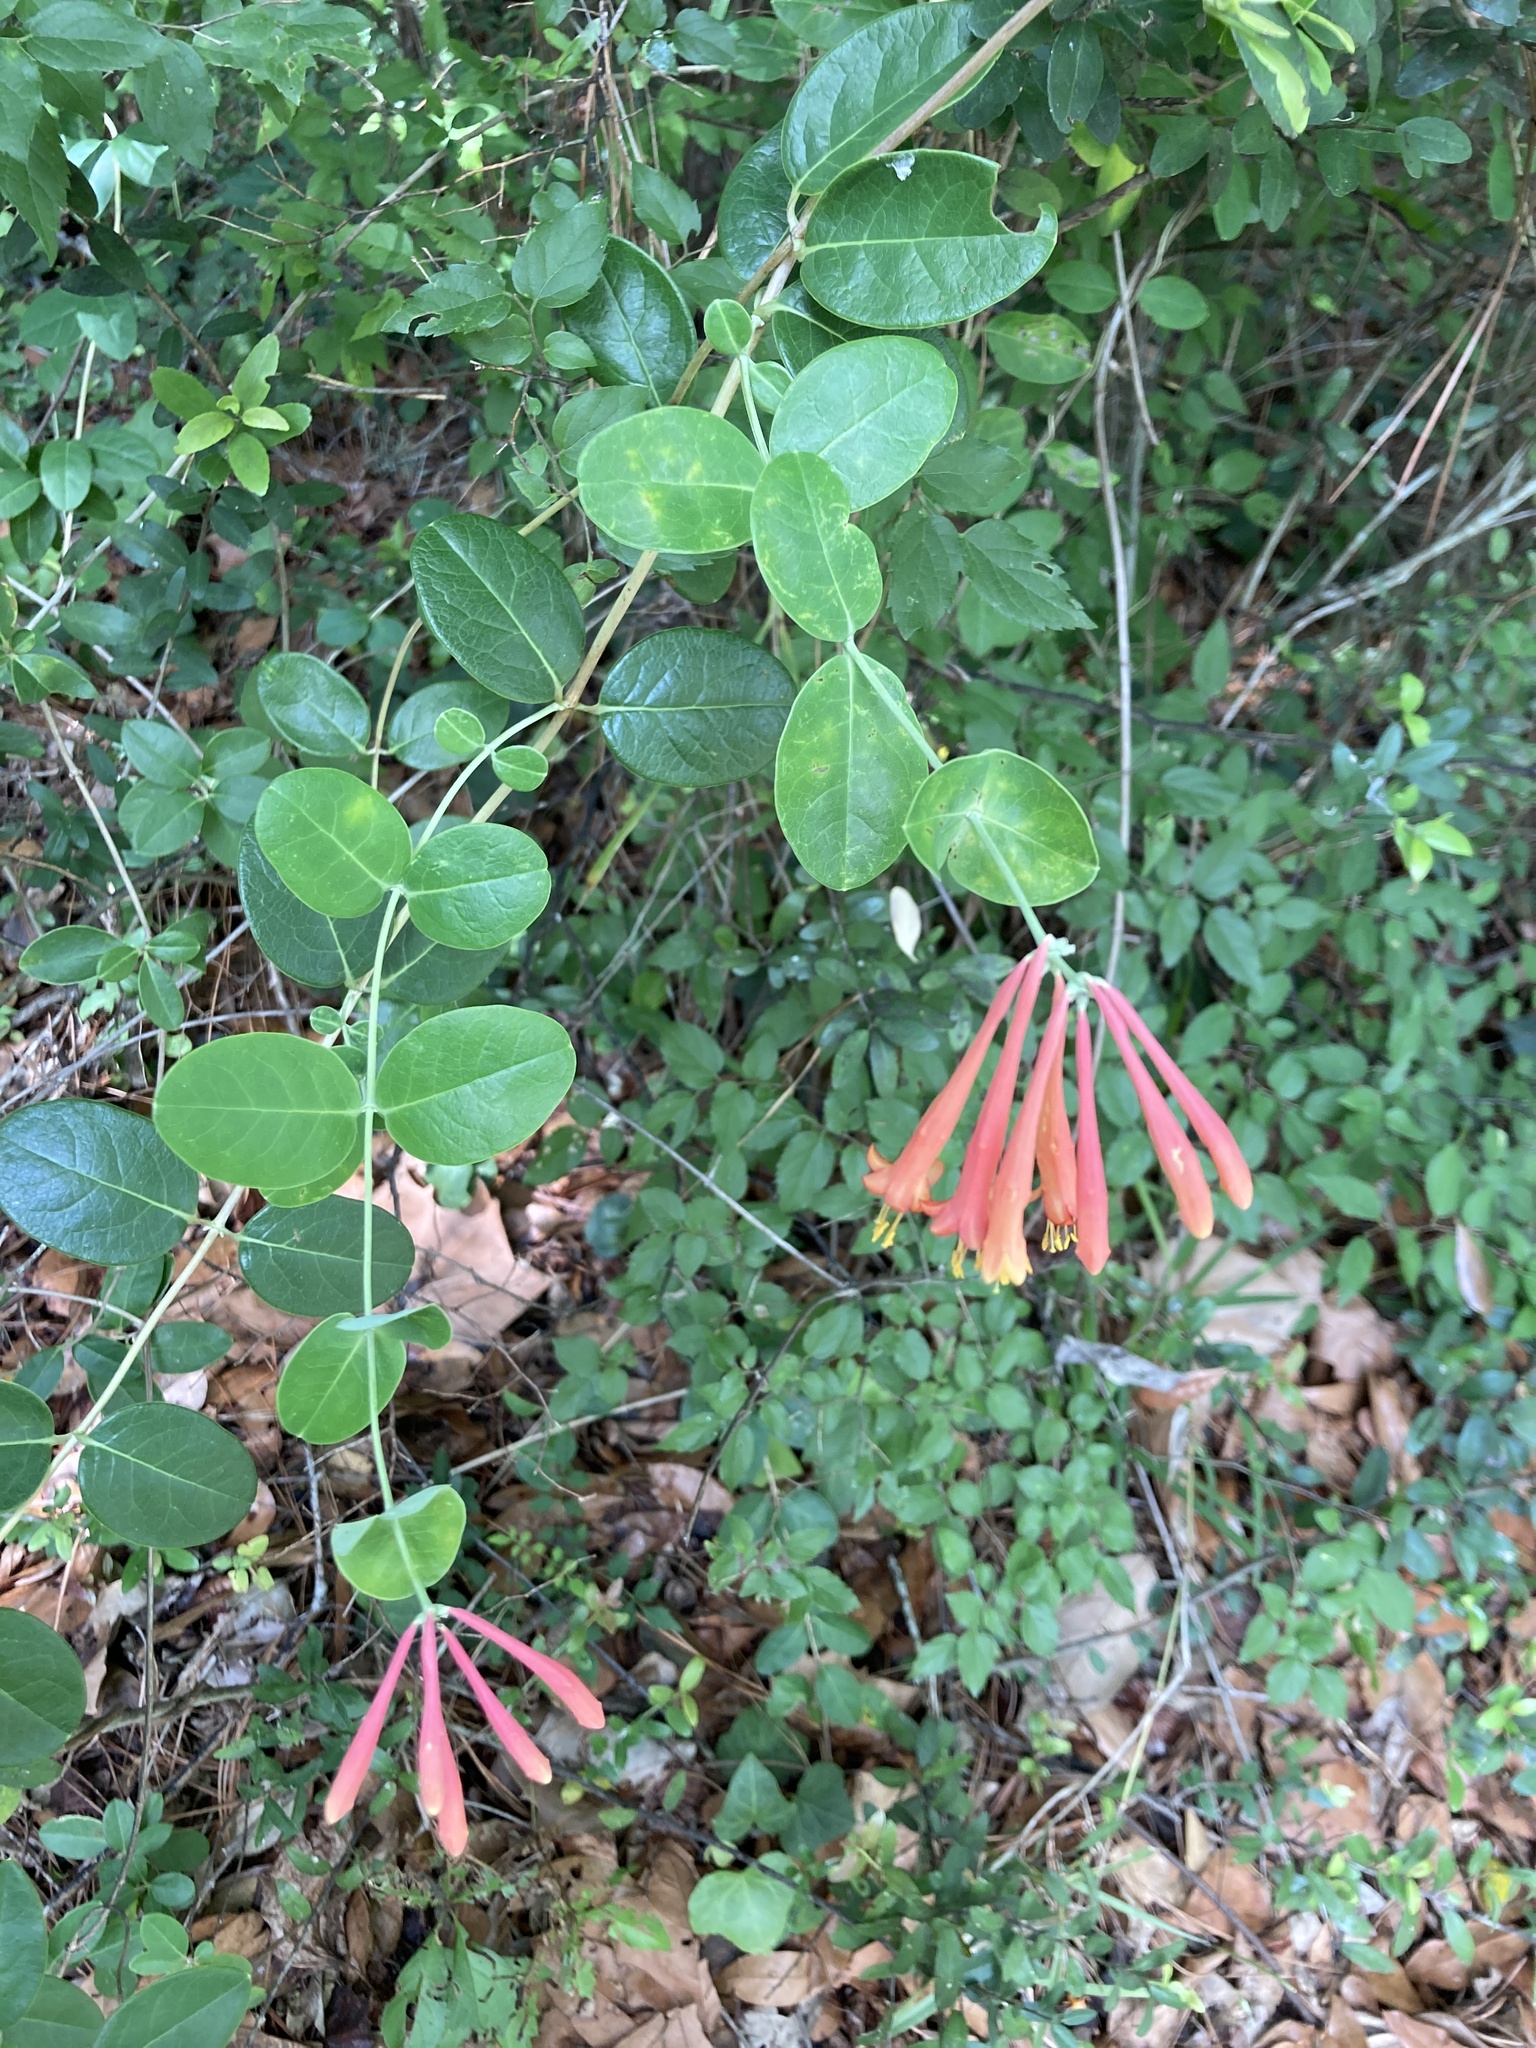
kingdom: Plantae
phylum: Tracheophyta
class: Magnoliopsida
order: Dipsacales
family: Caprifoliaceae
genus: Lonicera
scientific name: Lonicera sempervirens
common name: Coral honeysuckle
